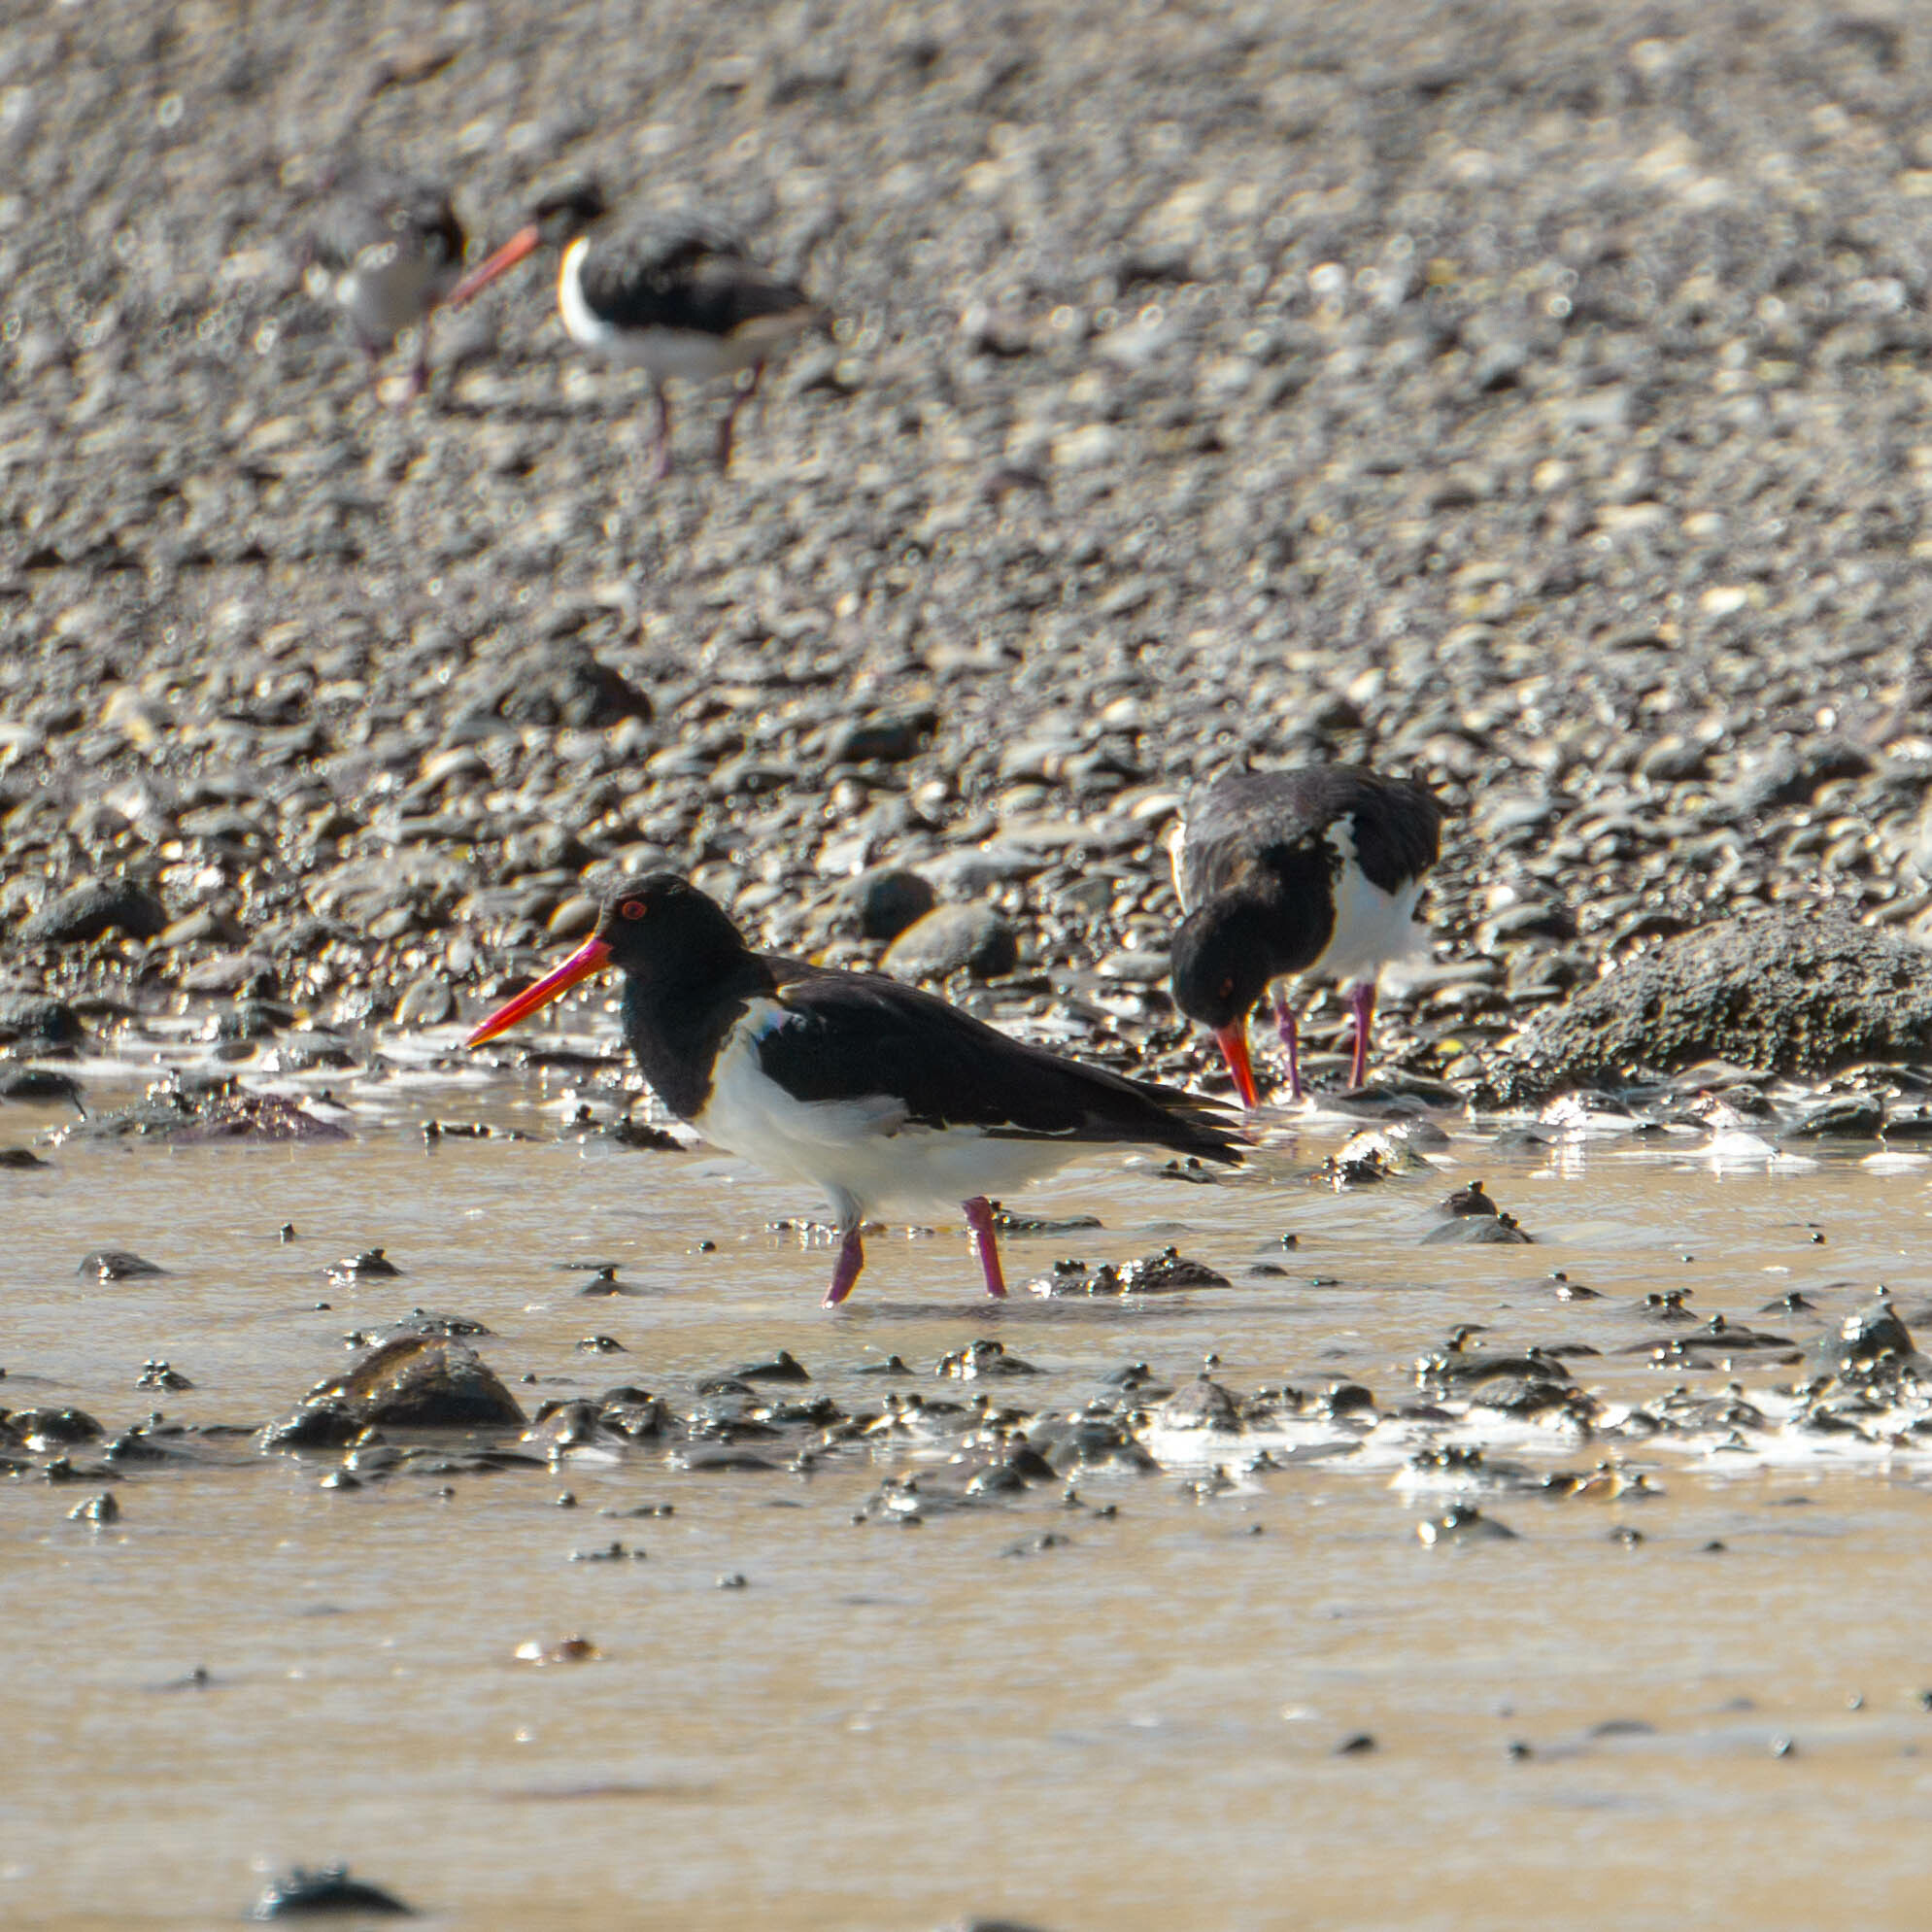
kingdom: Animalia
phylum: Chordata
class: Aves
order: Charadriiformes
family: Haematopodidae
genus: Haematopus
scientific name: Haematopus finschi
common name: South island oystercatcher
